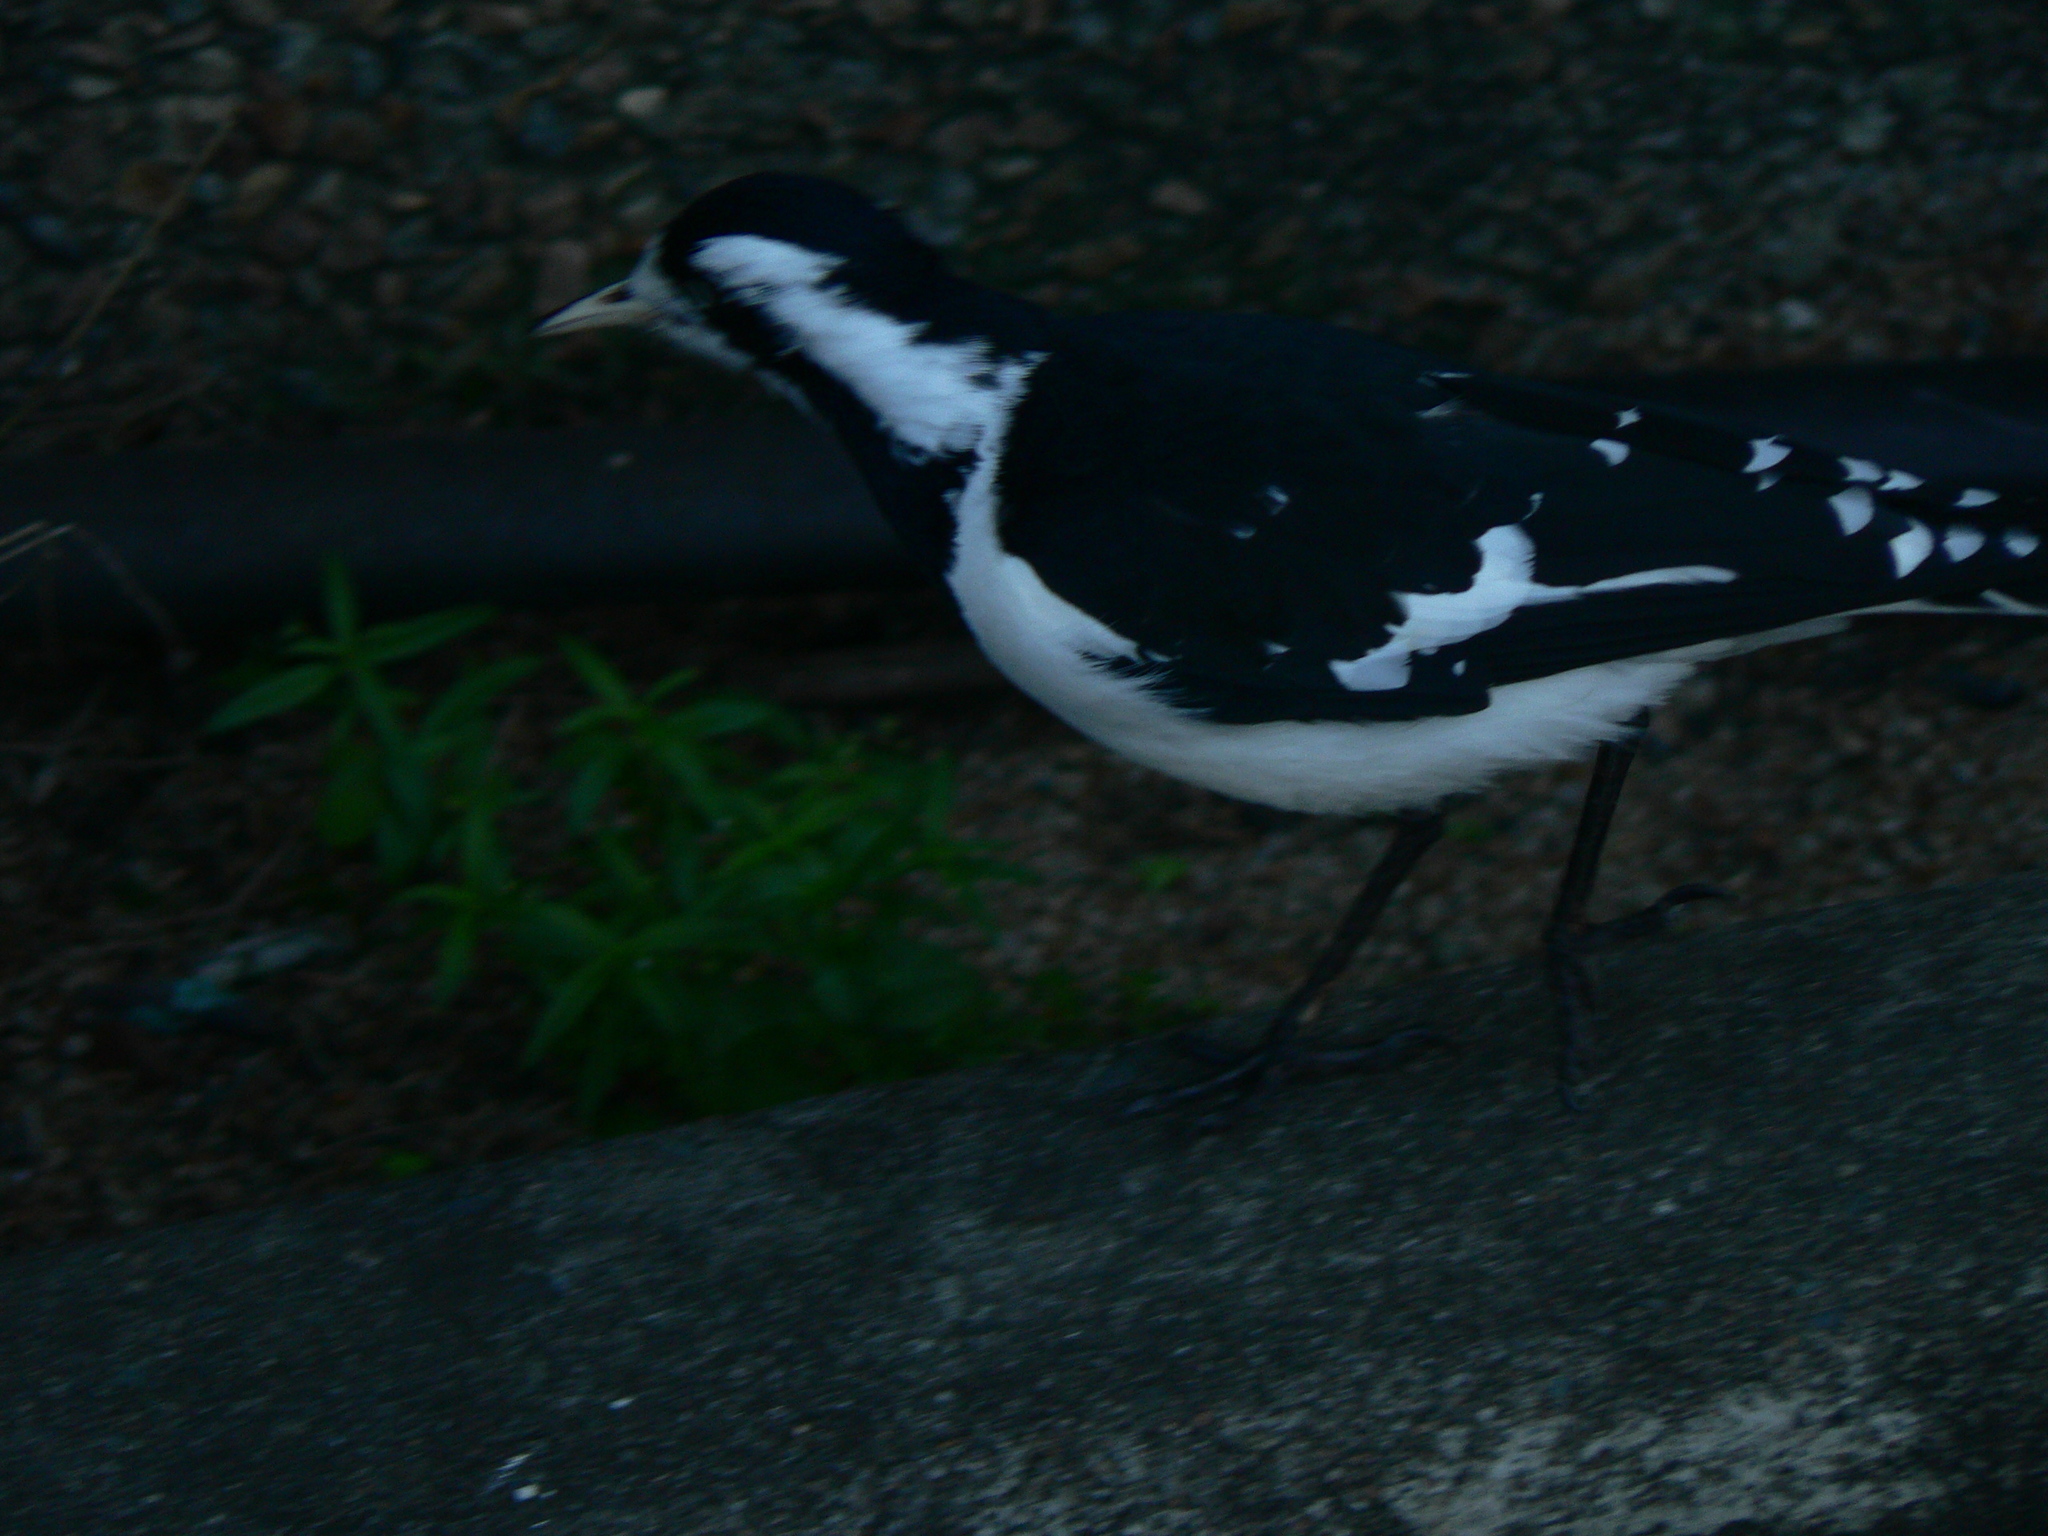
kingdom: Animalia
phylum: Chordata
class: Aves
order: Passeriformes
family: Monarchidae
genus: Grallina
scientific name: Grallina cyanoleuca
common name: Magpie-lark
